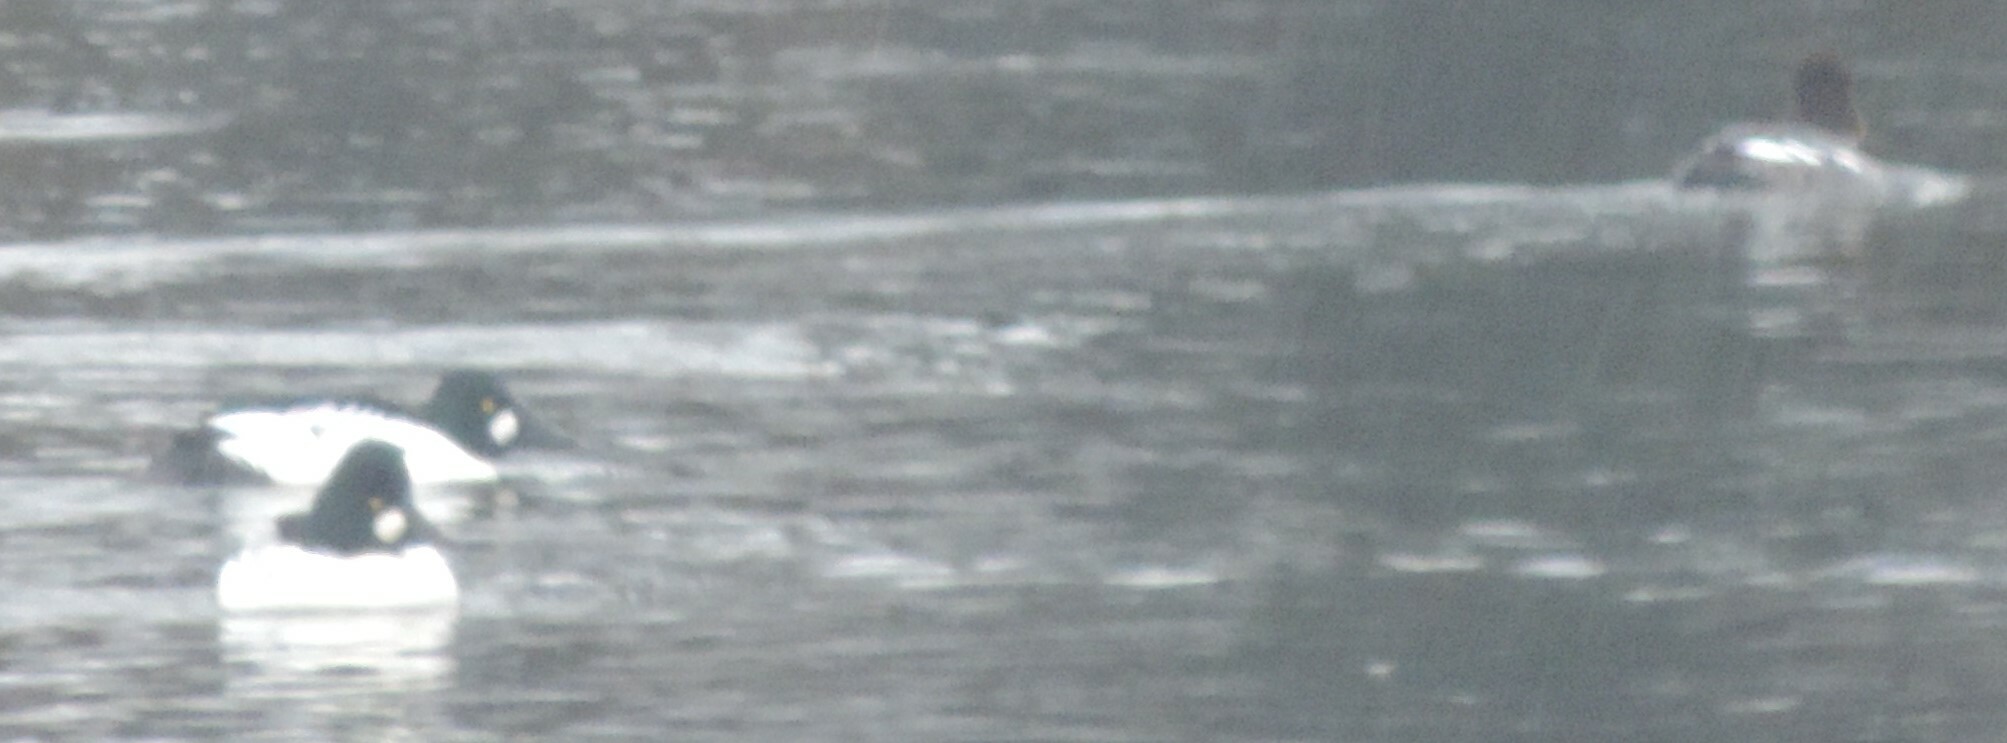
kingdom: Animalia
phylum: Chordata
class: Aves
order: Anseriformes
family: Anatidae
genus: Bucephala
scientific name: Bucephala clangula
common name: Common goldeneye
